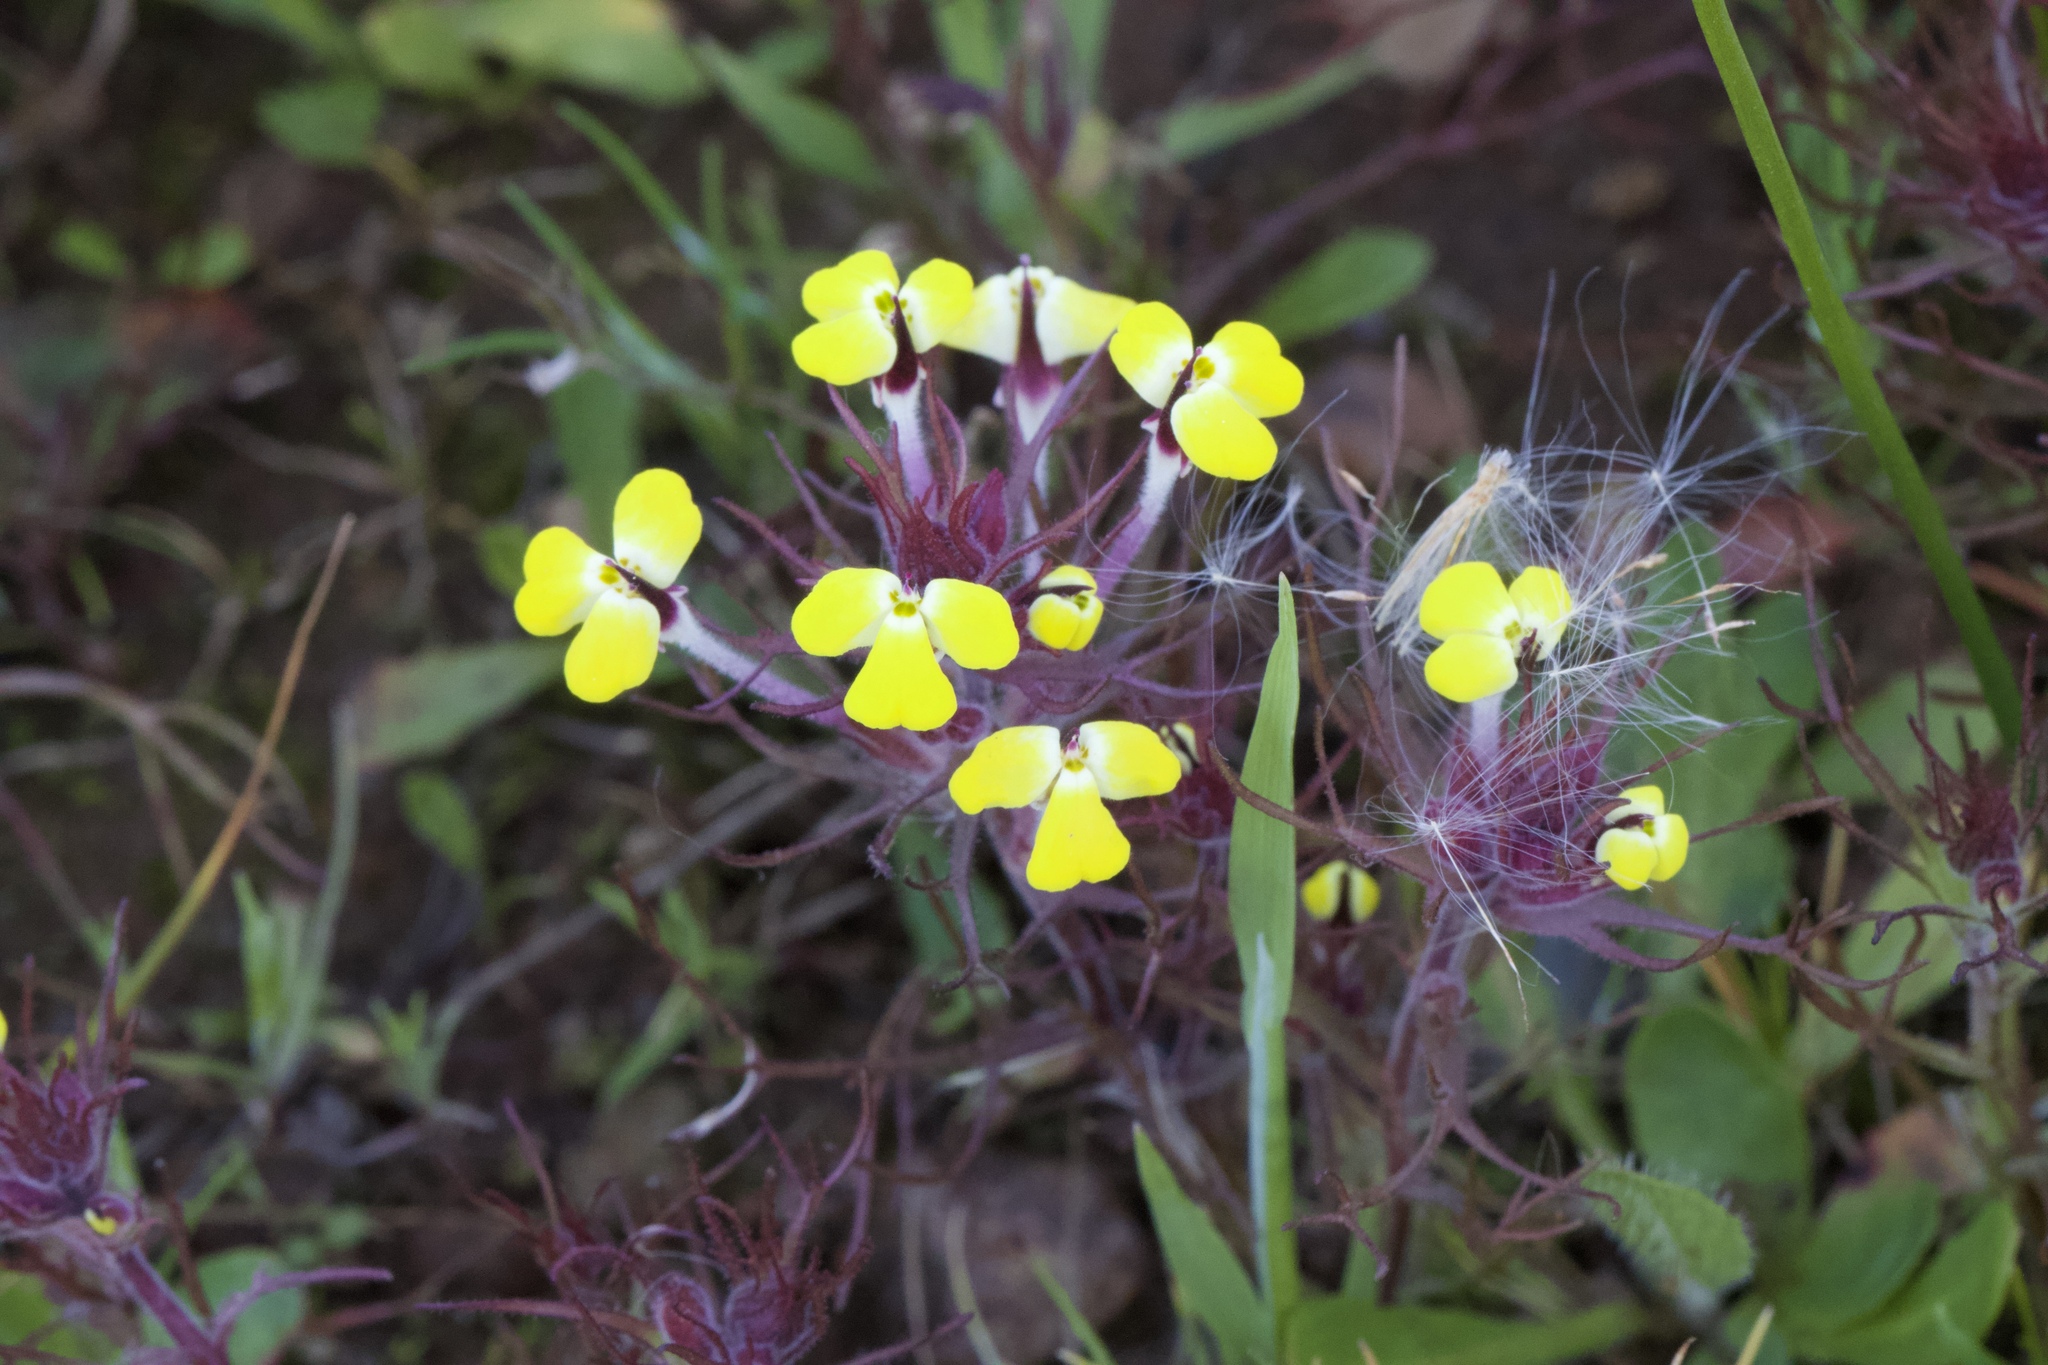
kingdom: Plantae
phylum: Tracheophyta
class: Magnoliopsida
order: Lamiales
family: Orobanchaceae
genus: Triphysaria
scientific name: Triphysaria eriantha
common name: Johnny-tuck
